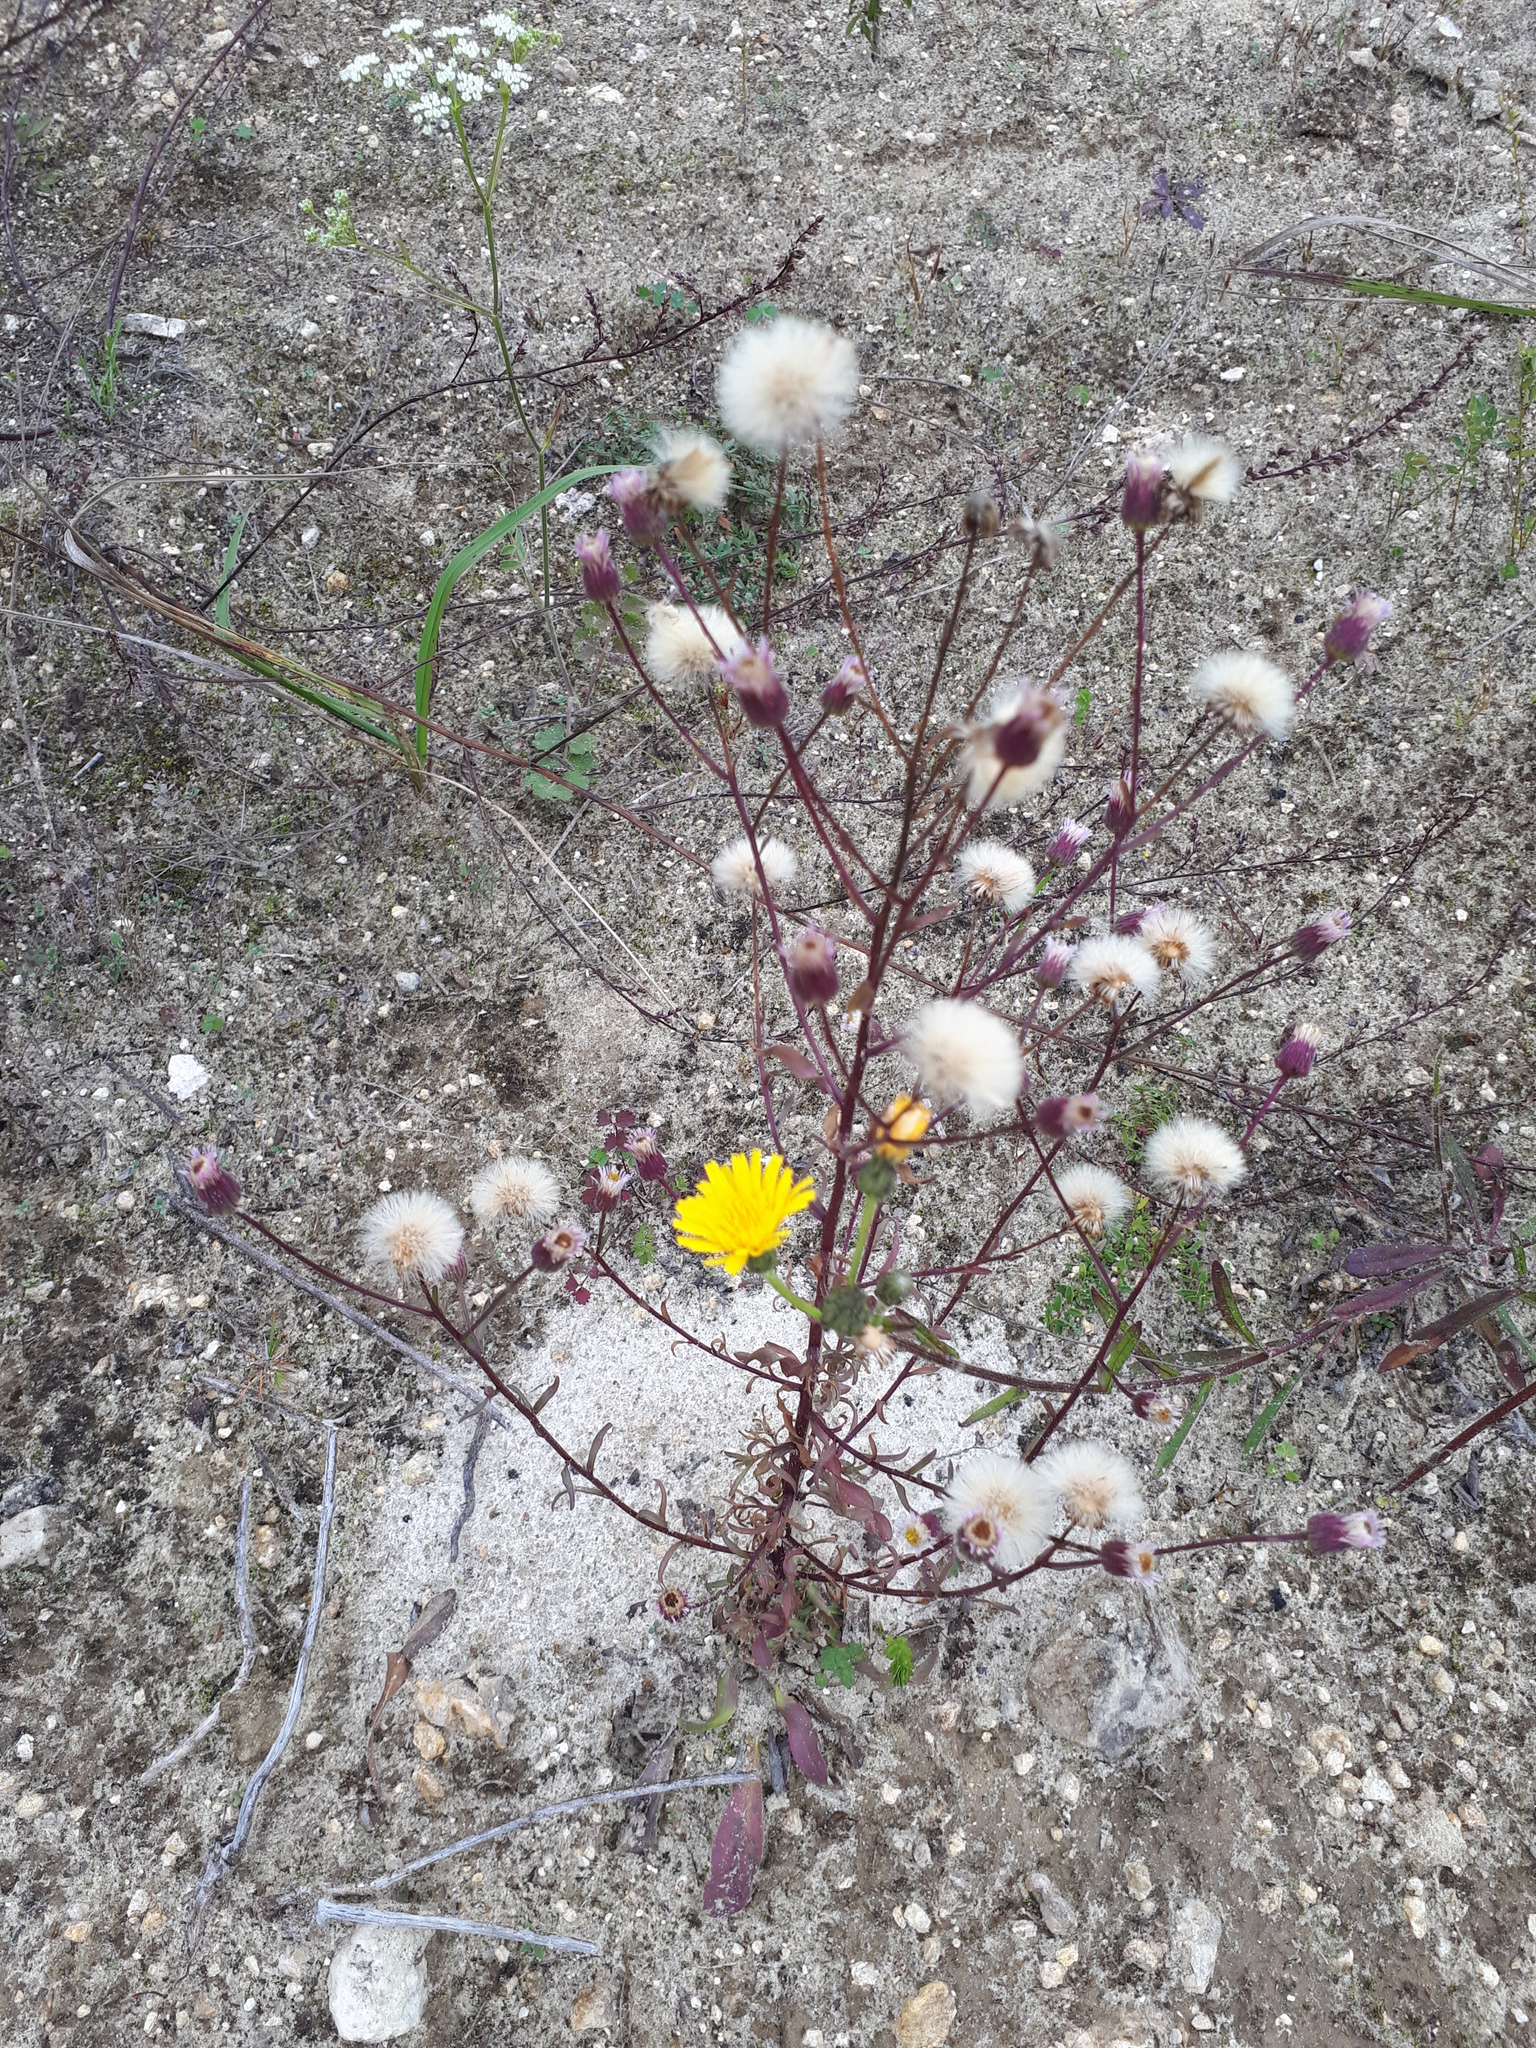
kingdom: Plantae
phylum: Tracheophyta
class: Magnoliopsida
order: Asterales
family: Asteraceae
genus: Erigeron
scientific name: Erigeron acris
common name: Blue fleabane
